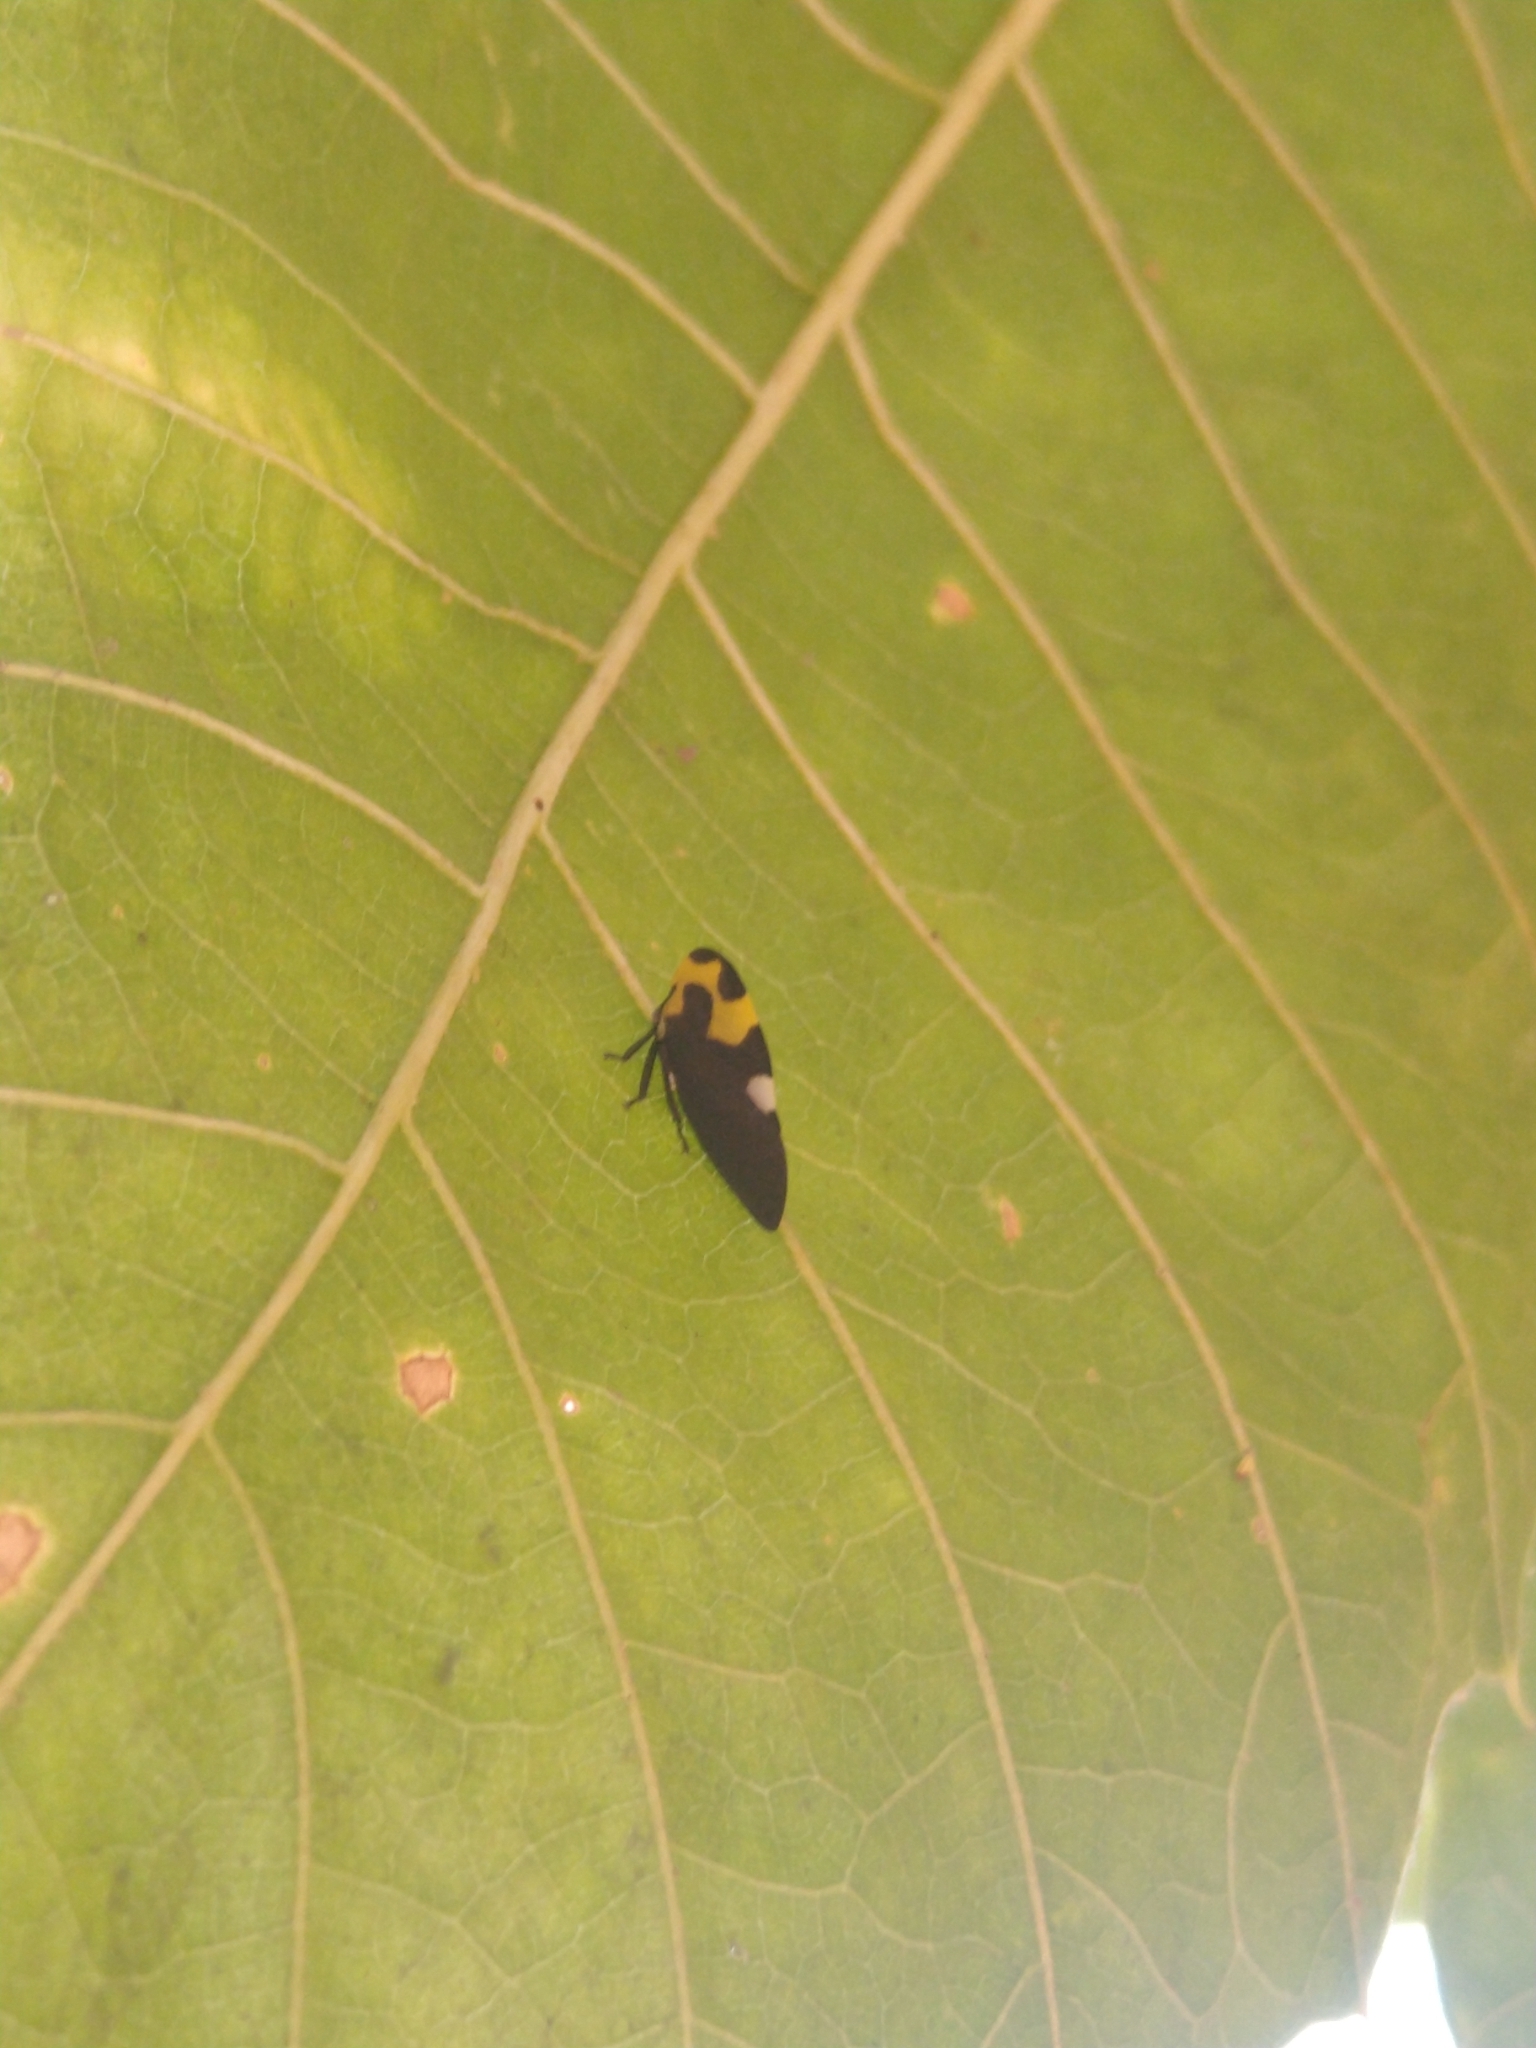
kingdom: Animalia
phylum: Arthropoda
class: Insecta
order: Hemiptera
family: Membracidae
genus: Membracis
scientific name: Membracis mexicana
